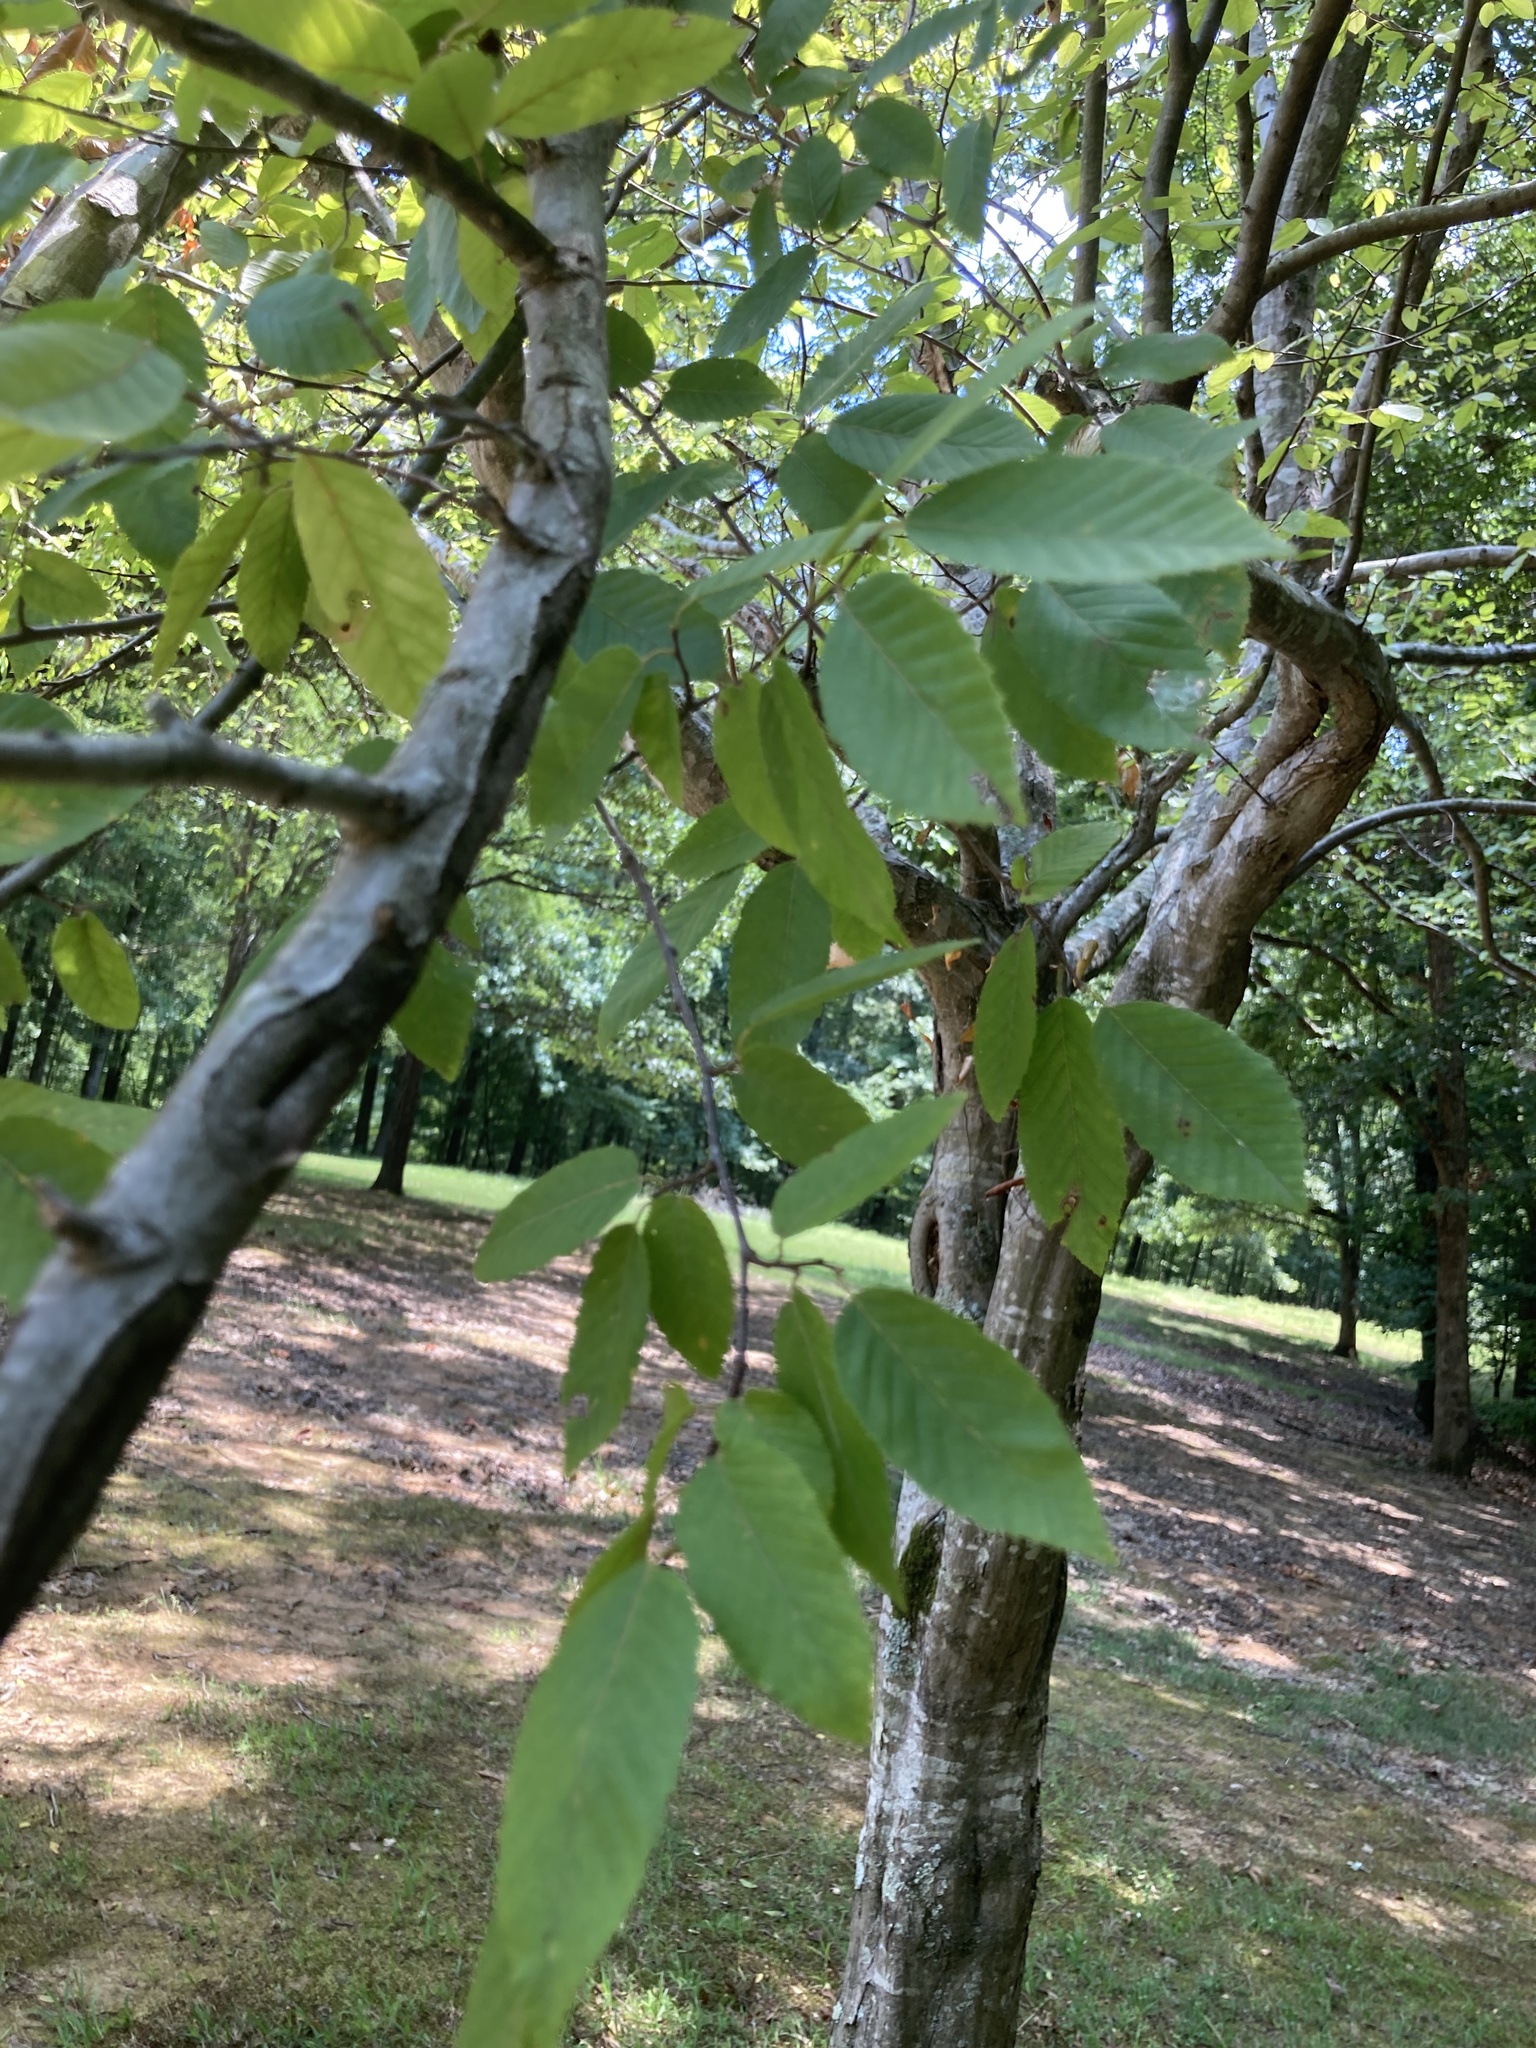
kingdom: Plantae
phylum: Tracheophyta
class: Magnoliopsida
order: Fagales
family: Betulaceae
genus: Carpinus
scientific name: Carpinus caroliniana
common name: American hornbeam
